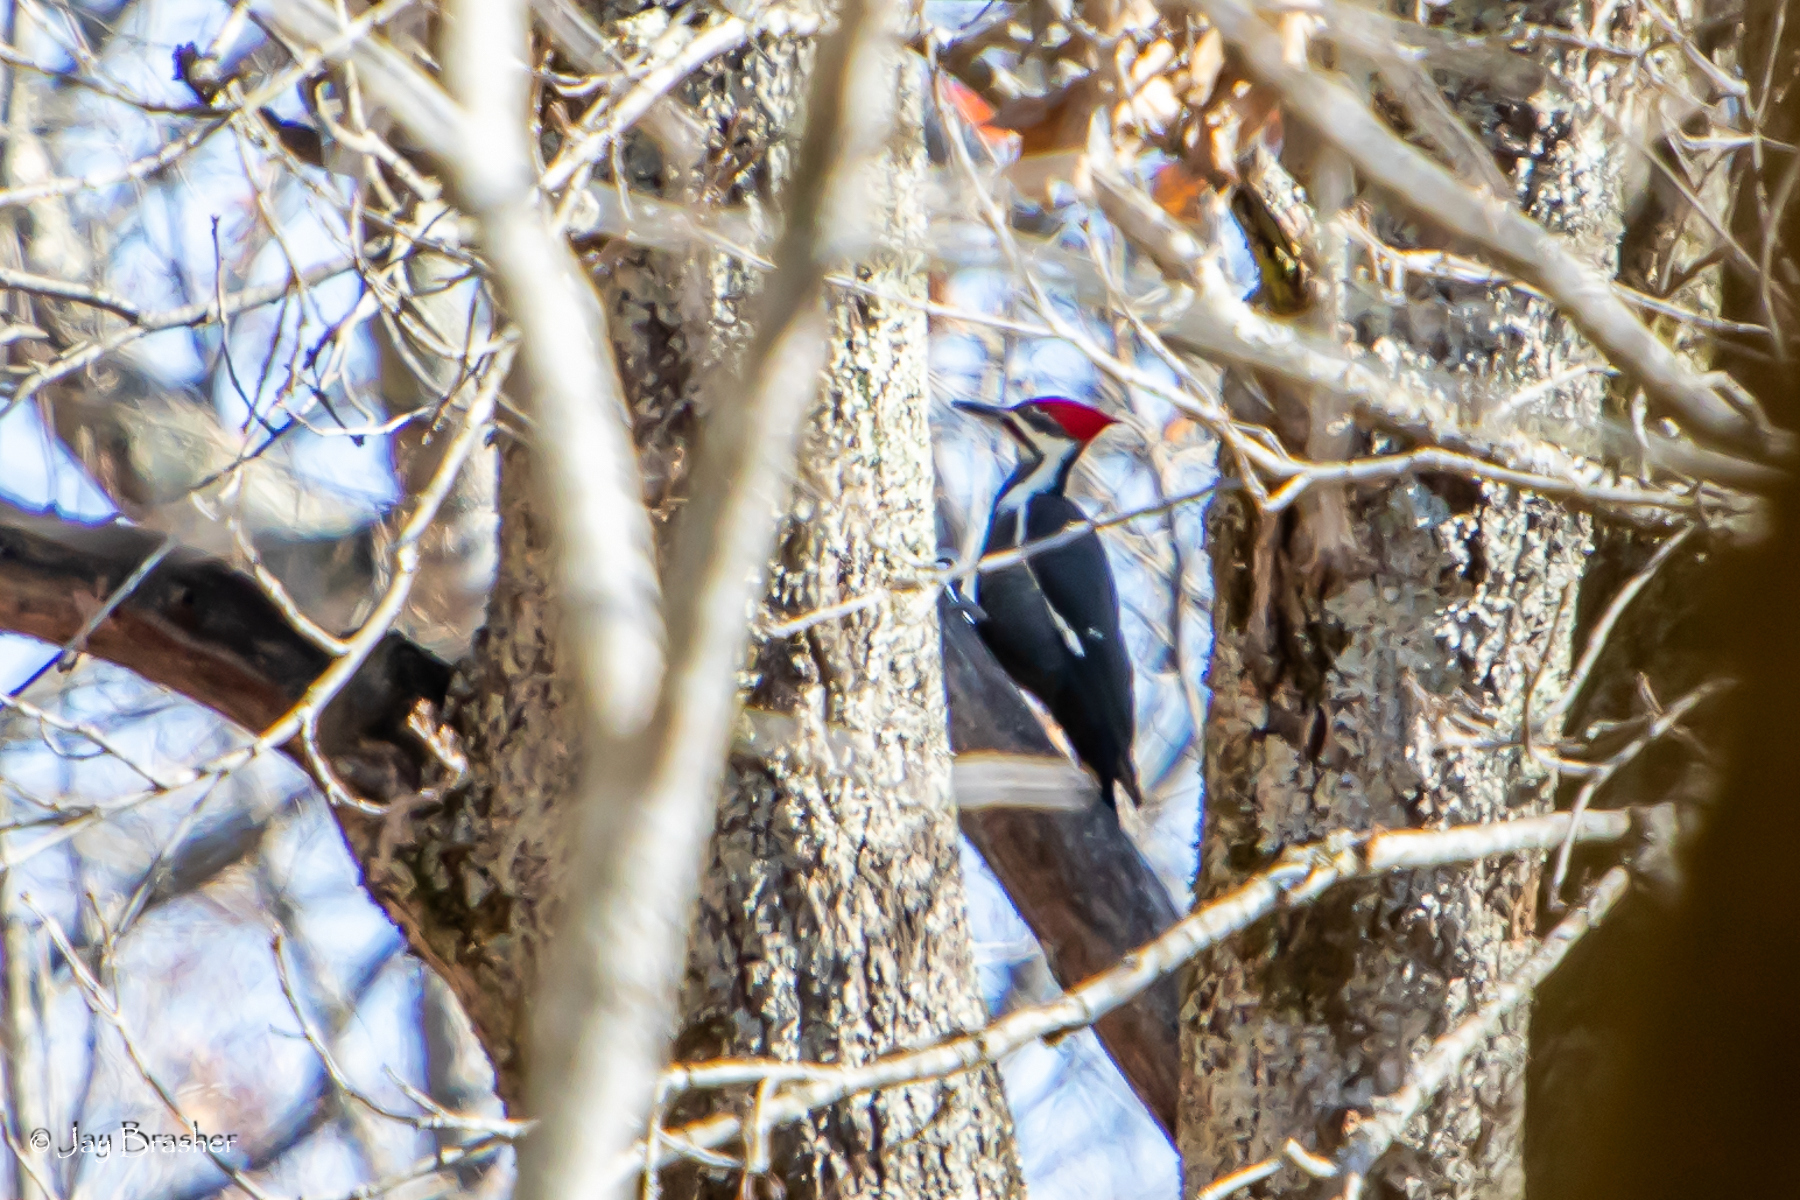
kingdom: Animalia
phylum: Chordata
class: Aves
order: Piciformes
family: Picidae
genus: Dryocopus
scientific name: Dryocopus pileatus
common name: Pileated woodpecker
